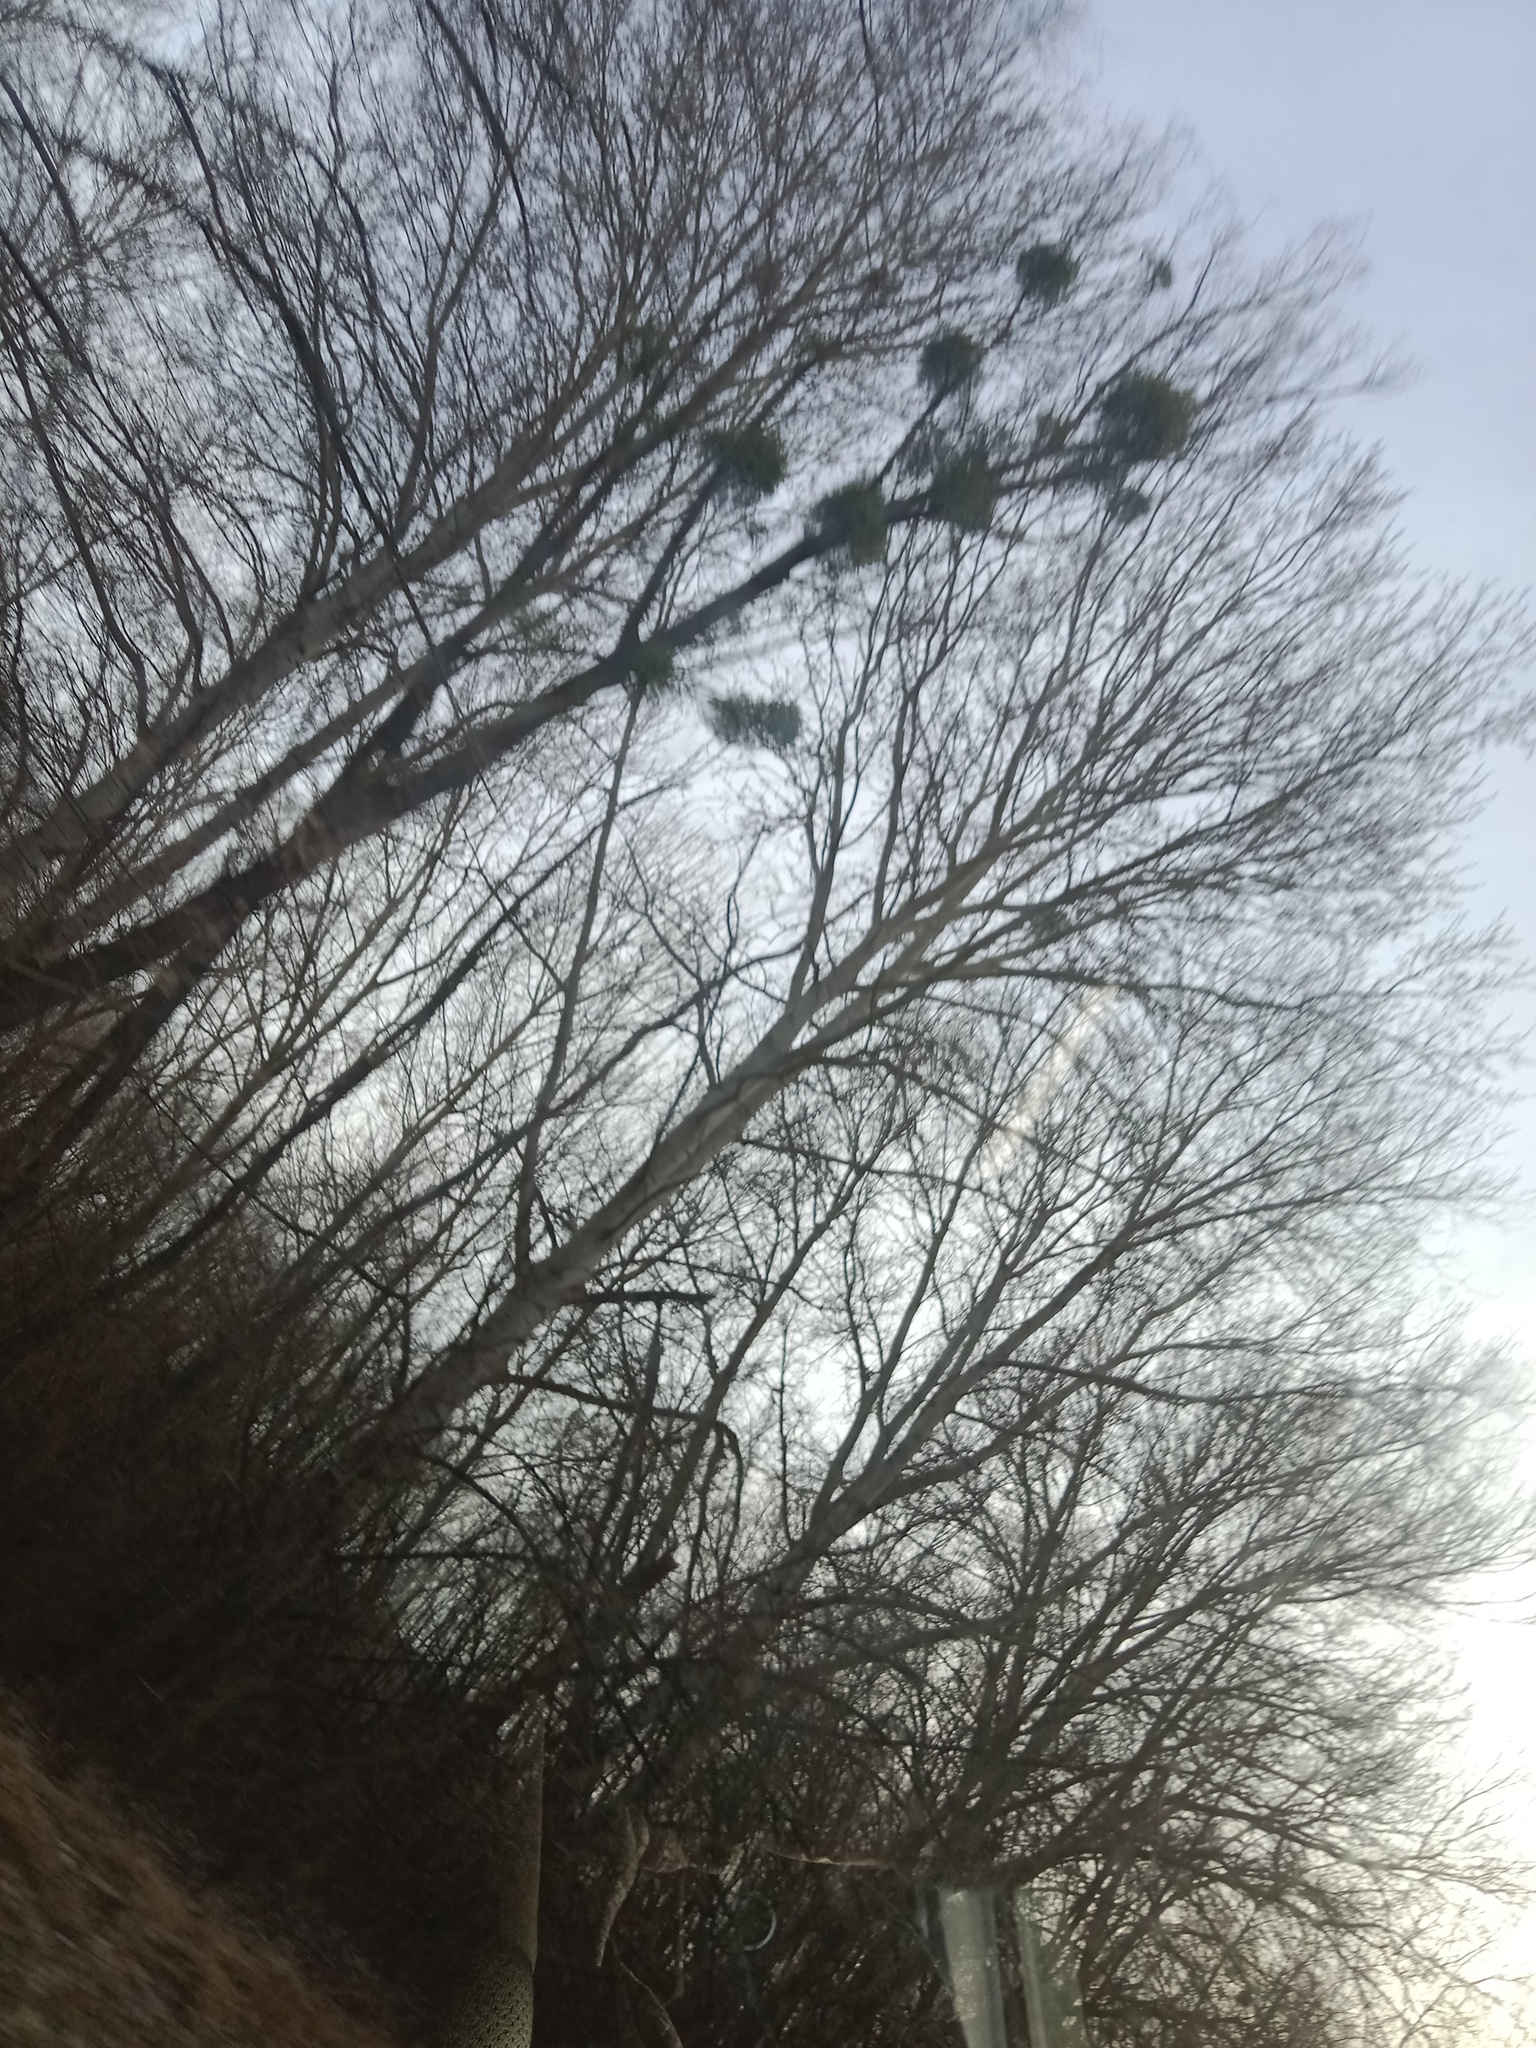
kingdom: Plantae
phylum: Tracheophyta
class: Magnoliopsida
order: Santalales
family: Viscaceae
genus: Viscum
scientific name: Viscum album
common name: Mistletoe
